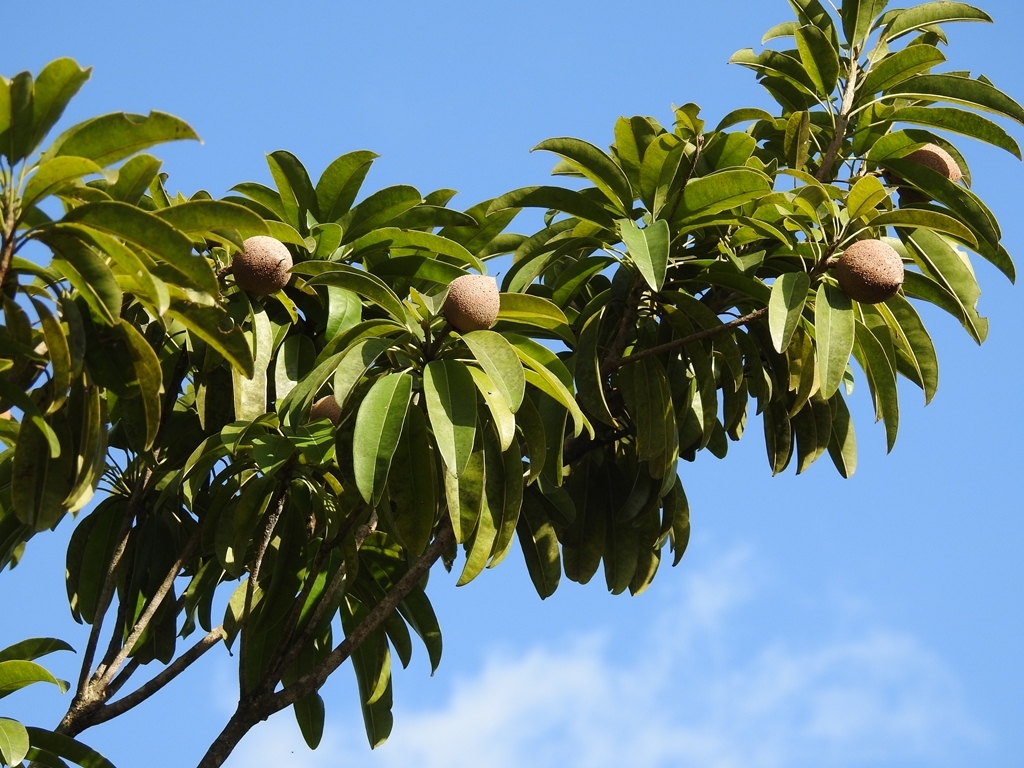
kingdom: Plantae
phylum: Tracheophyta
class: Magnoliopsida
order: Ericales
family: Sapotaceae
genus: Manilkara
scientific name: Manilkara zapota
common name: Sapodilla
